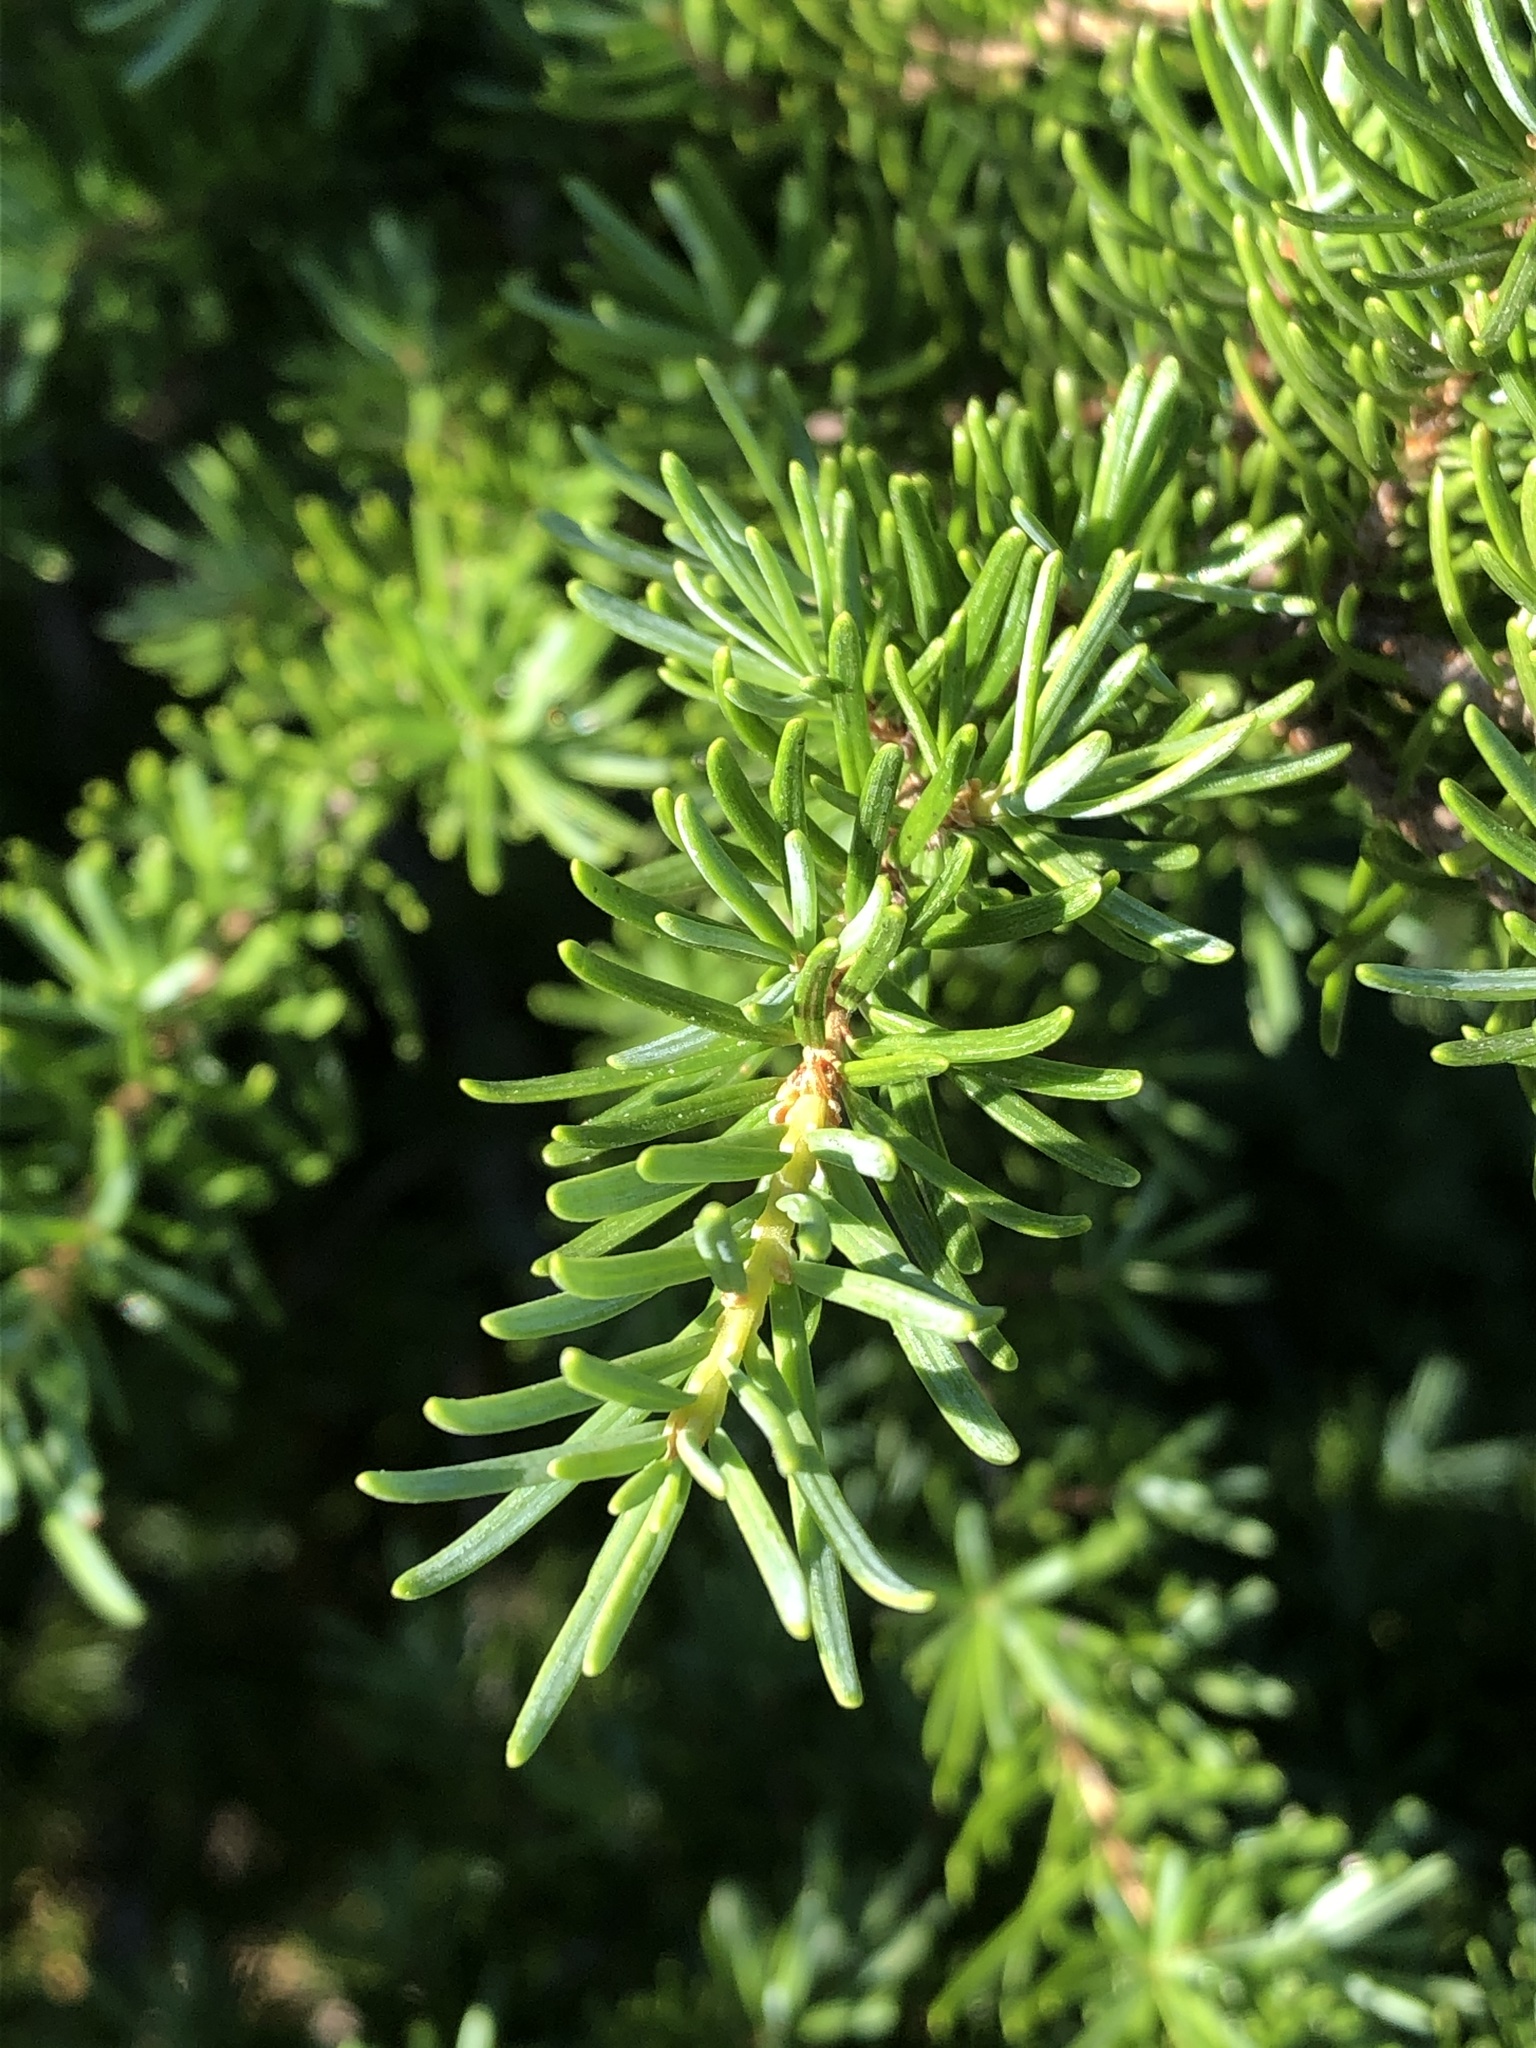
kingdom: Plantae
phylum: Tracheophyta
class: Pinopsida
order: Pinales
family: Pinaceae
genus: Tsuga
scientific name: Tsuga mertensiana
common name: Mountain hemlock
